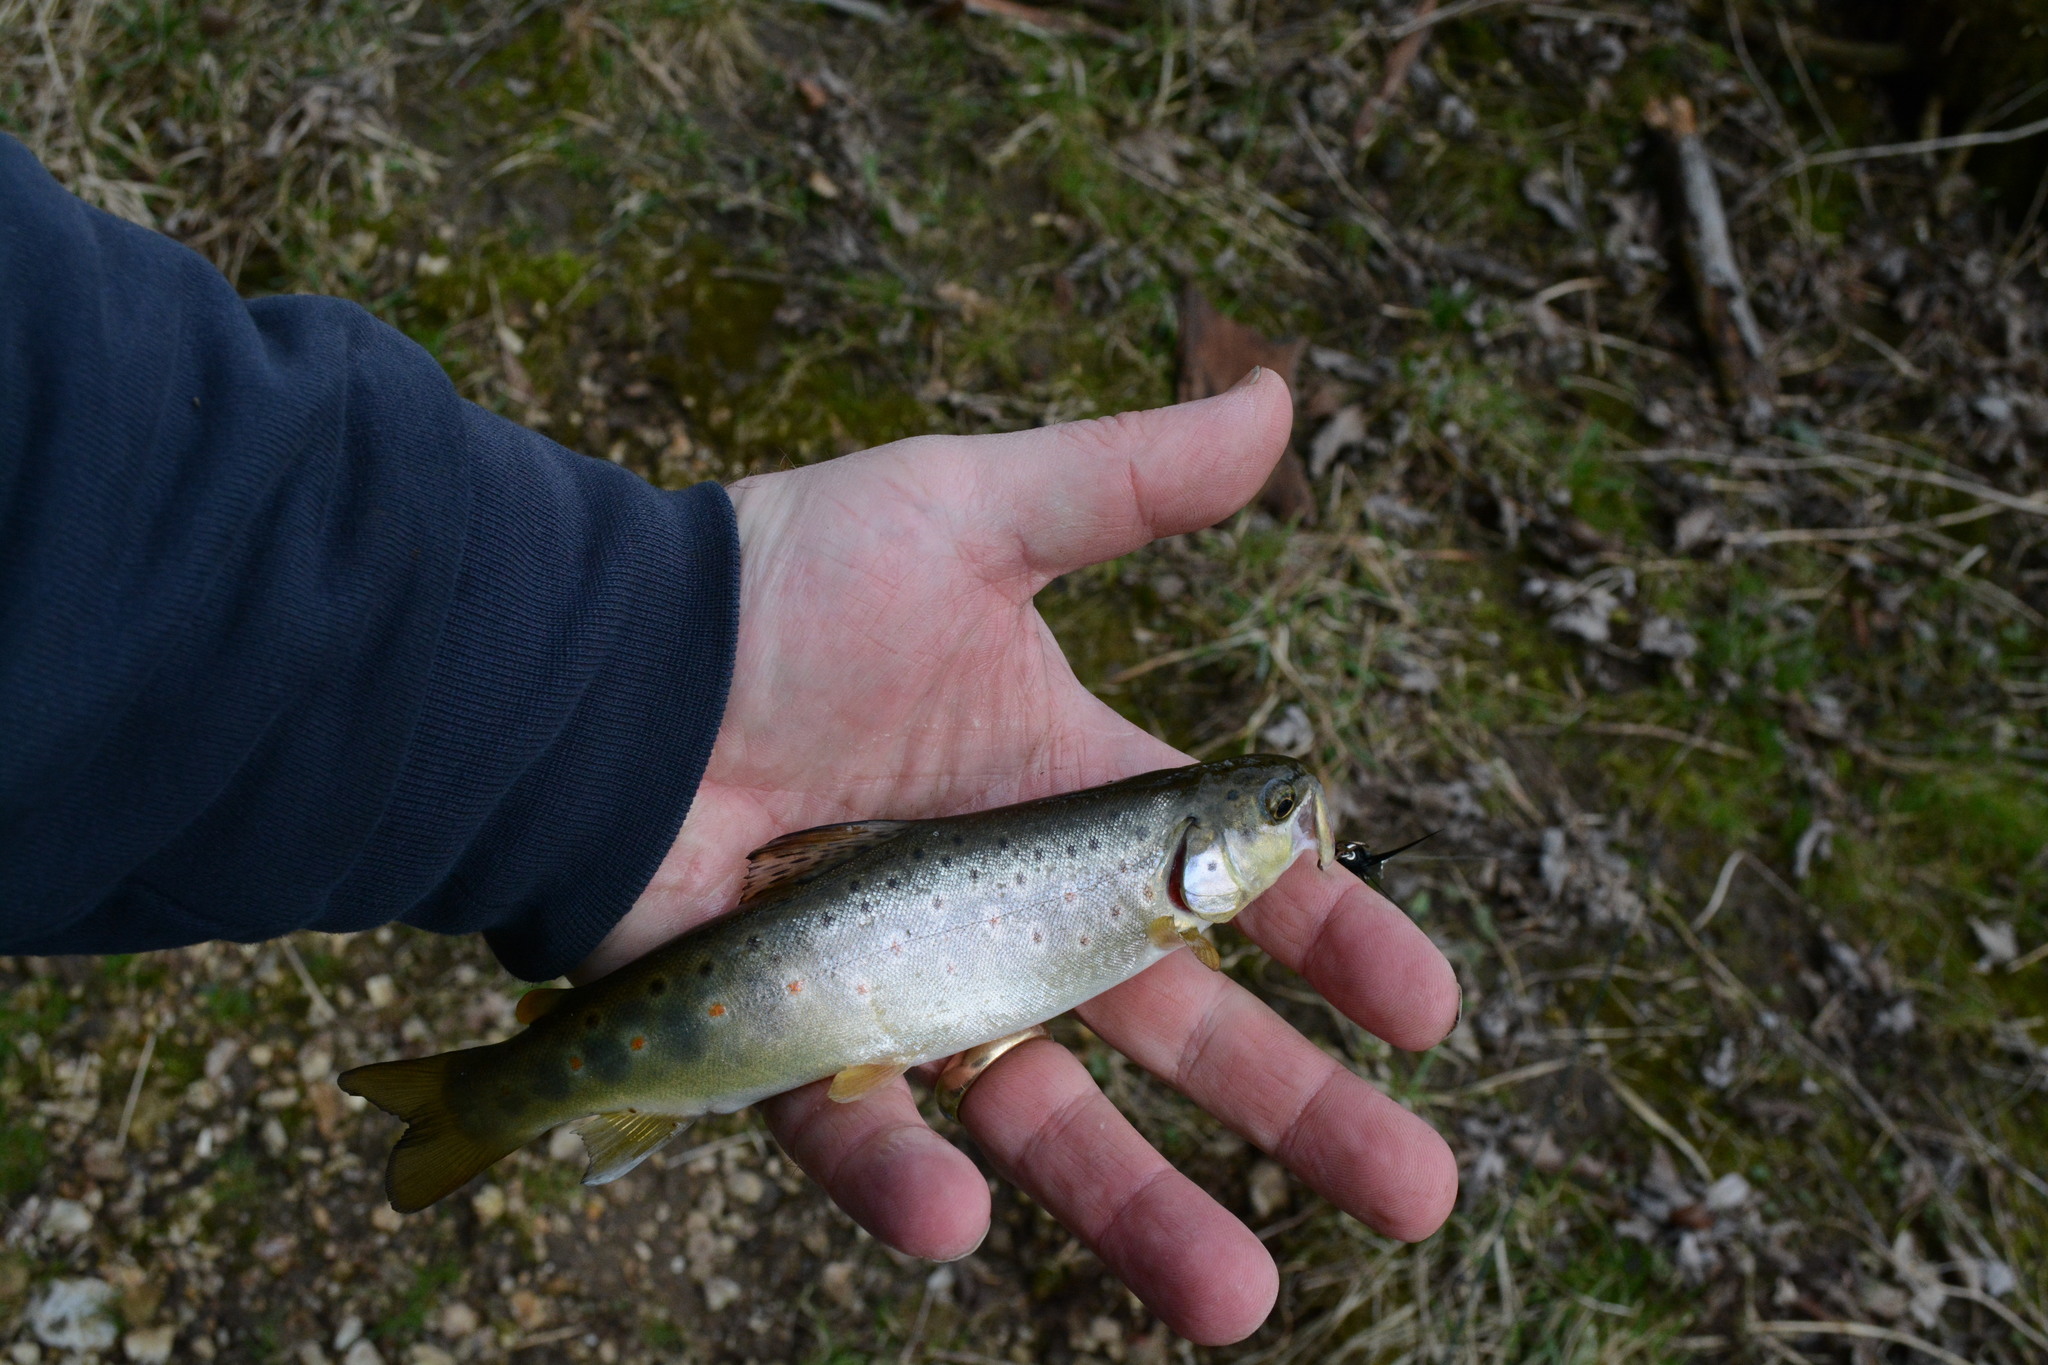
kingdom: Animalia
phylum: Chordata
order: Salmoniformes
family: Salmonidae
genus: Salmo
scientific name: Salmo trutta
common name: Brown trout
